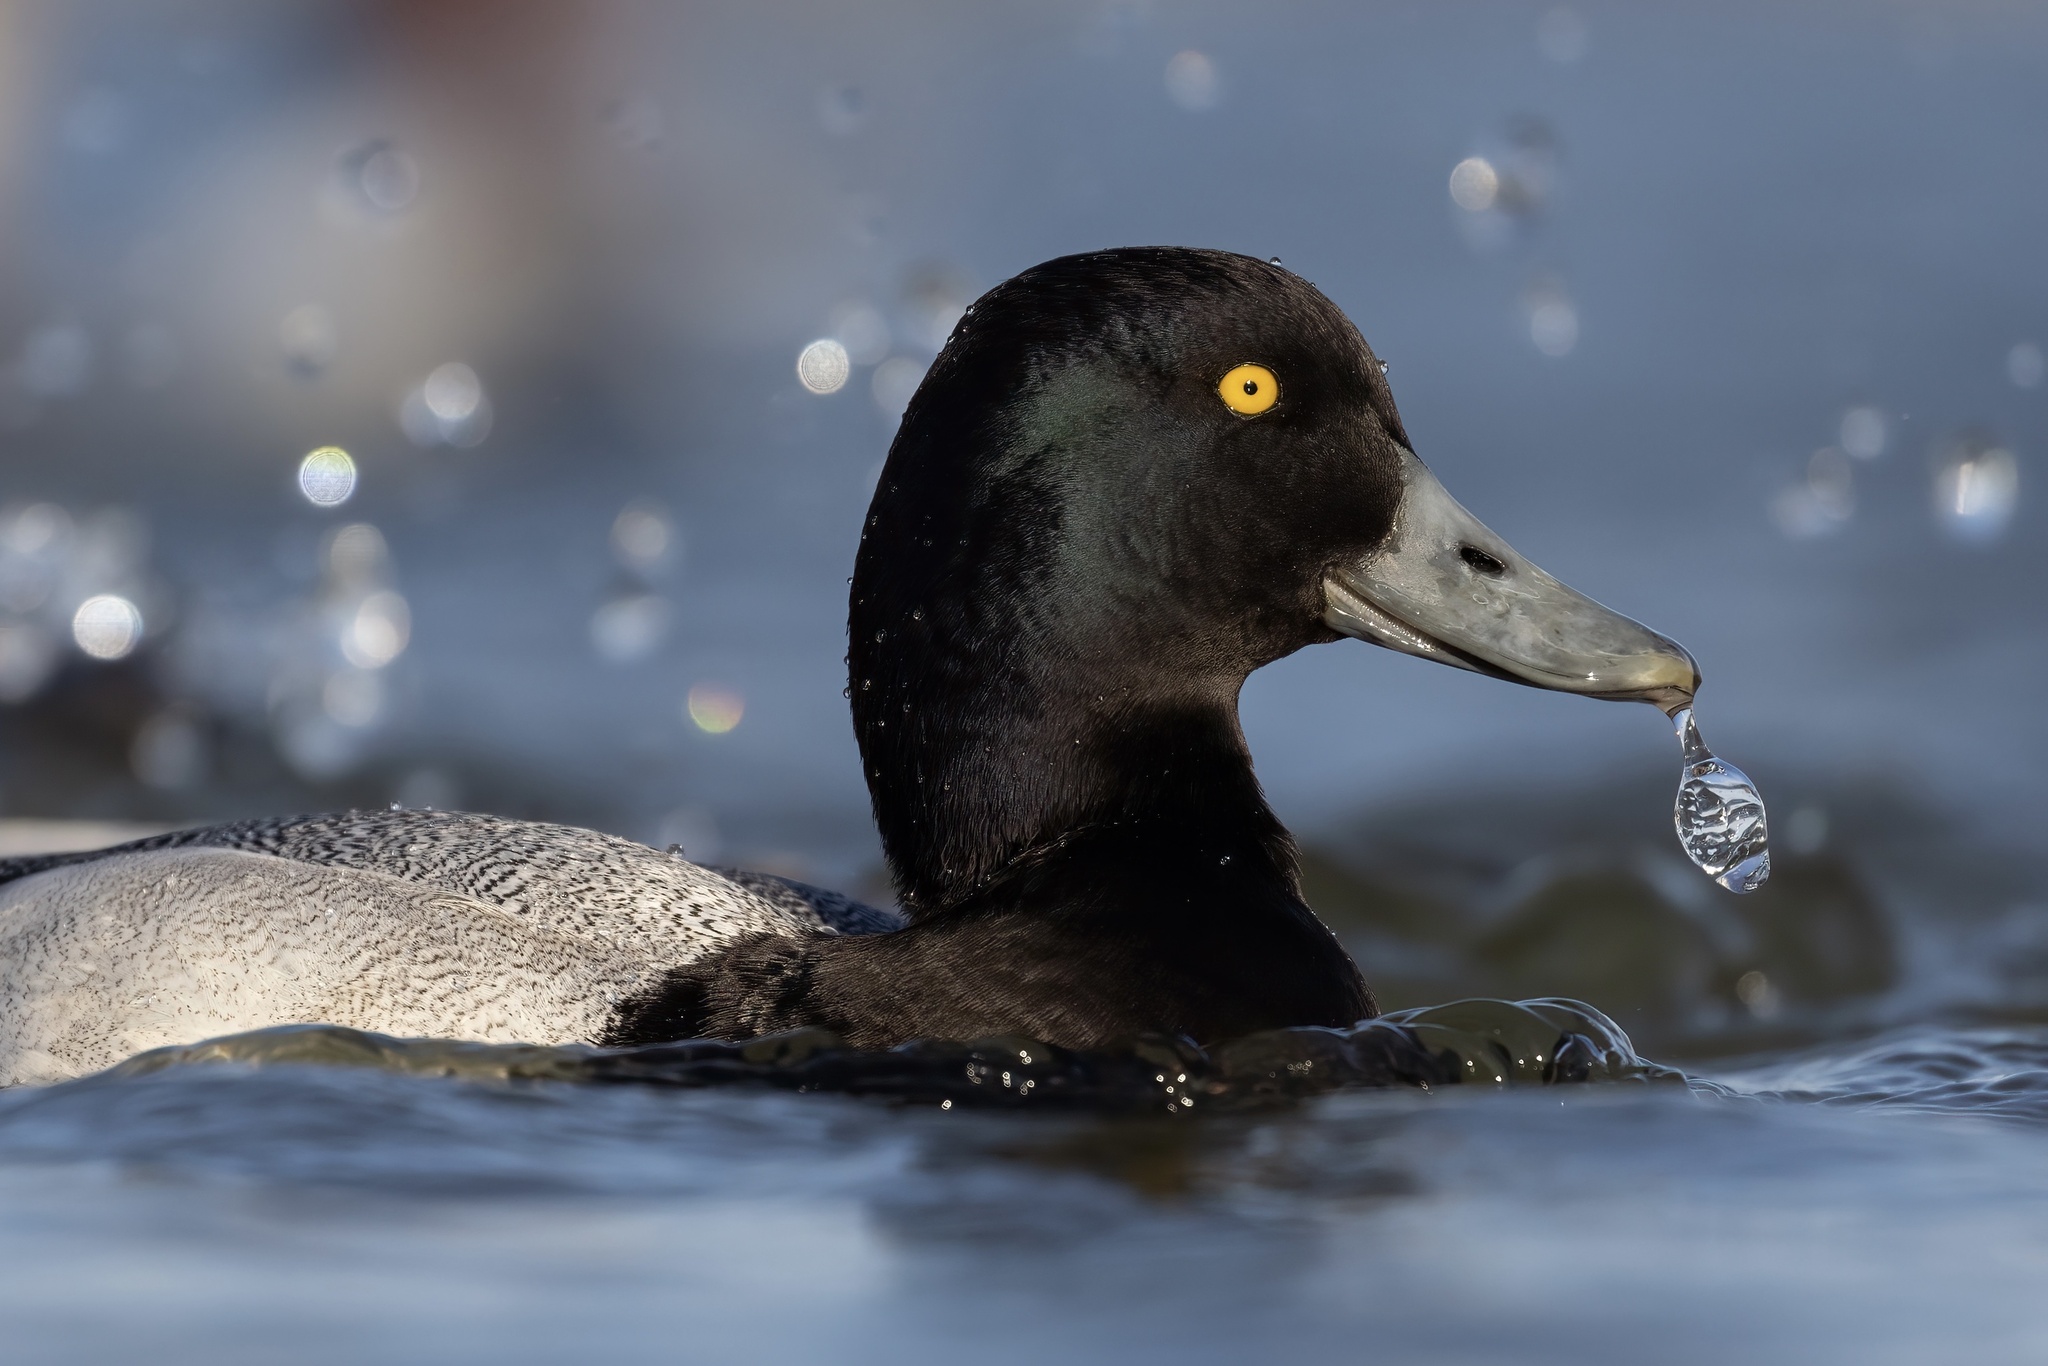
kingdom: Animalia
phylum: Chordata
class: Aves
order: Anseriformes
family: Anatidae
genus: Aythya
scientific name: Aythya affinis
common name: Lesser scaup
